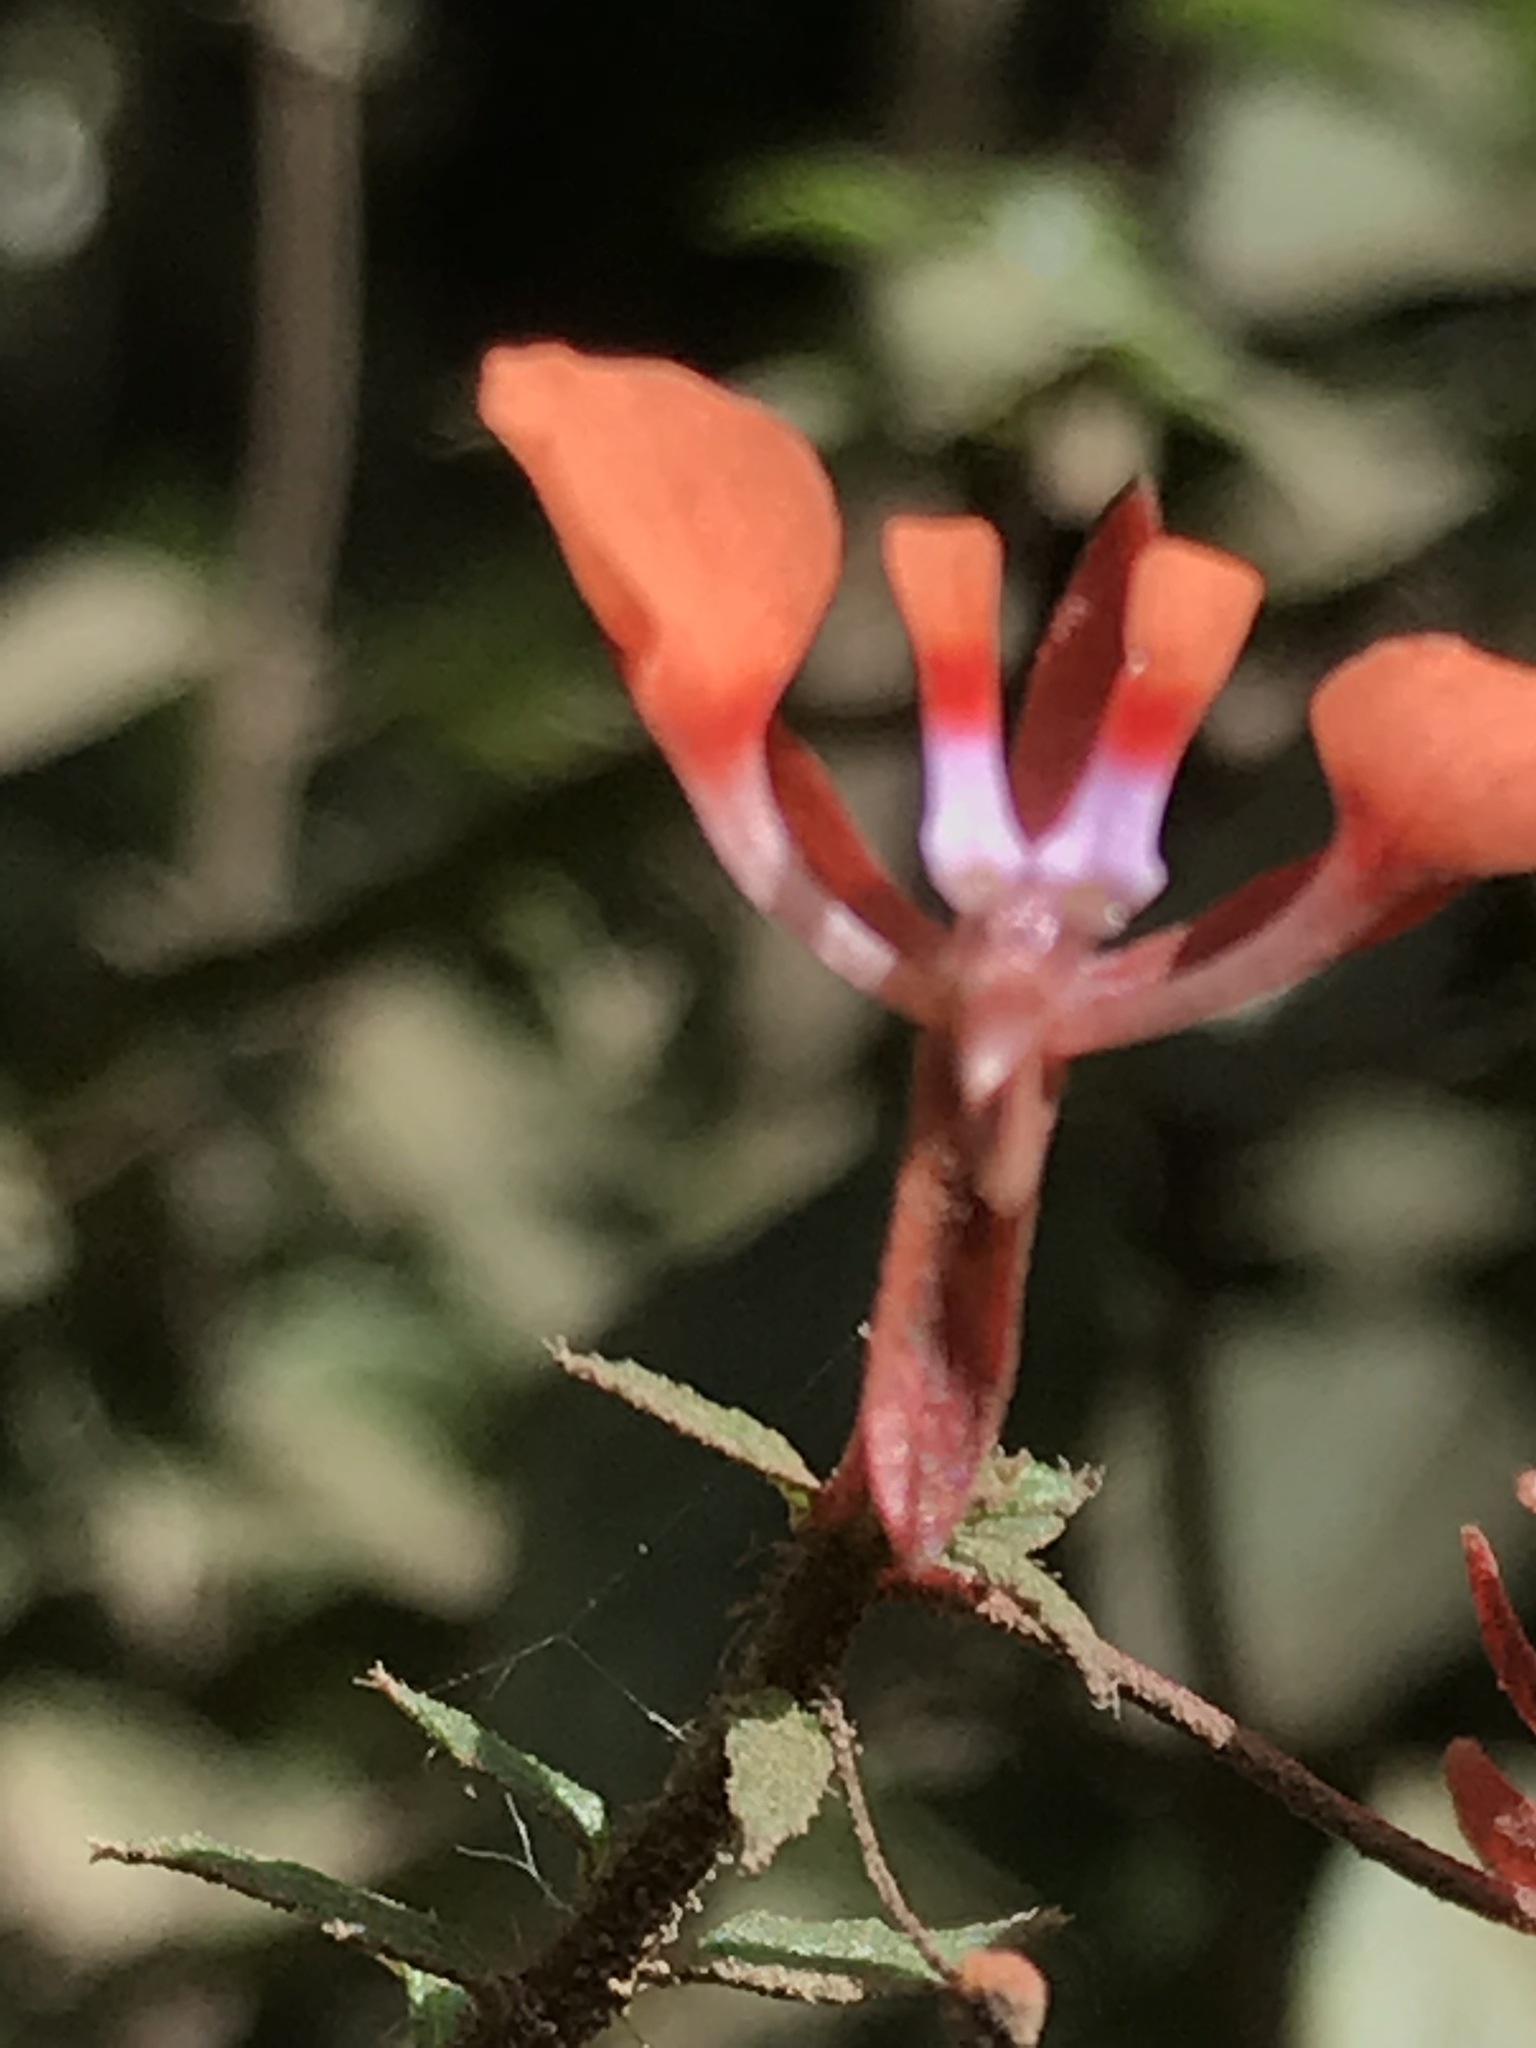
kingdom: Plantae
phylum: Tracheophyta
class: Magnoliopsida
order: Myrtales
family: Onagraceae
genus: Lopezia
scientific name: Lopezia racemosa
